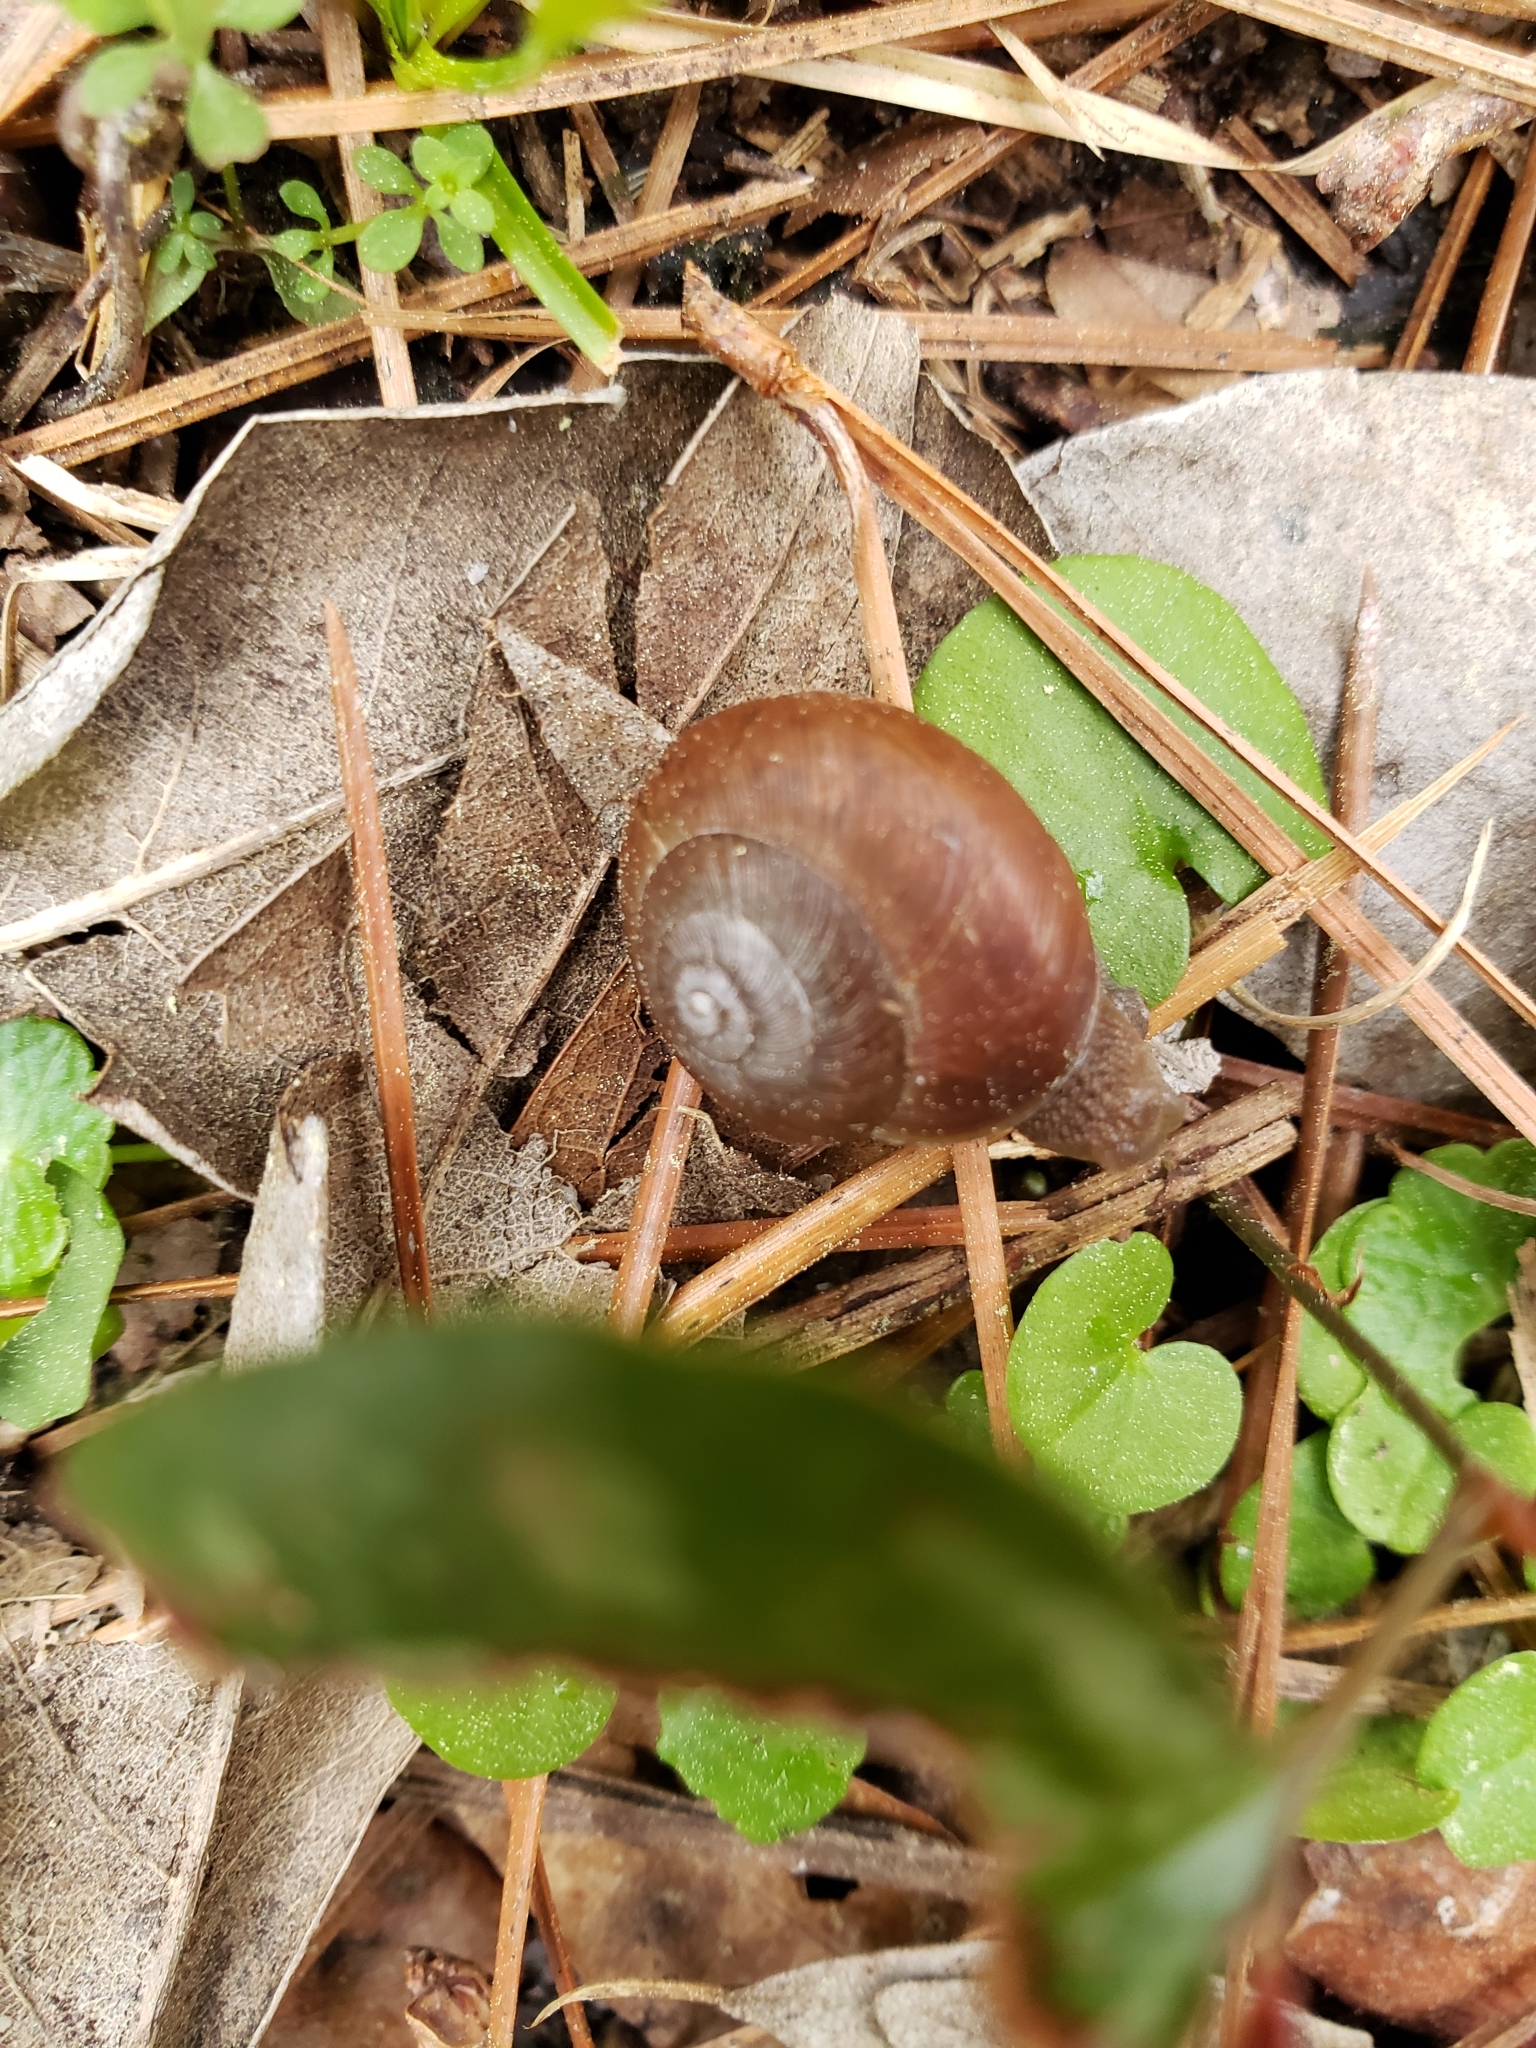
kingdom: Animalia
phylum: Mollusca
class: Gastropoda
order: Stylommatophora
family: Camaenidae
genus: Bradybaena
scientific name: Bradybaena similaris
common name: Asian trampsnail
